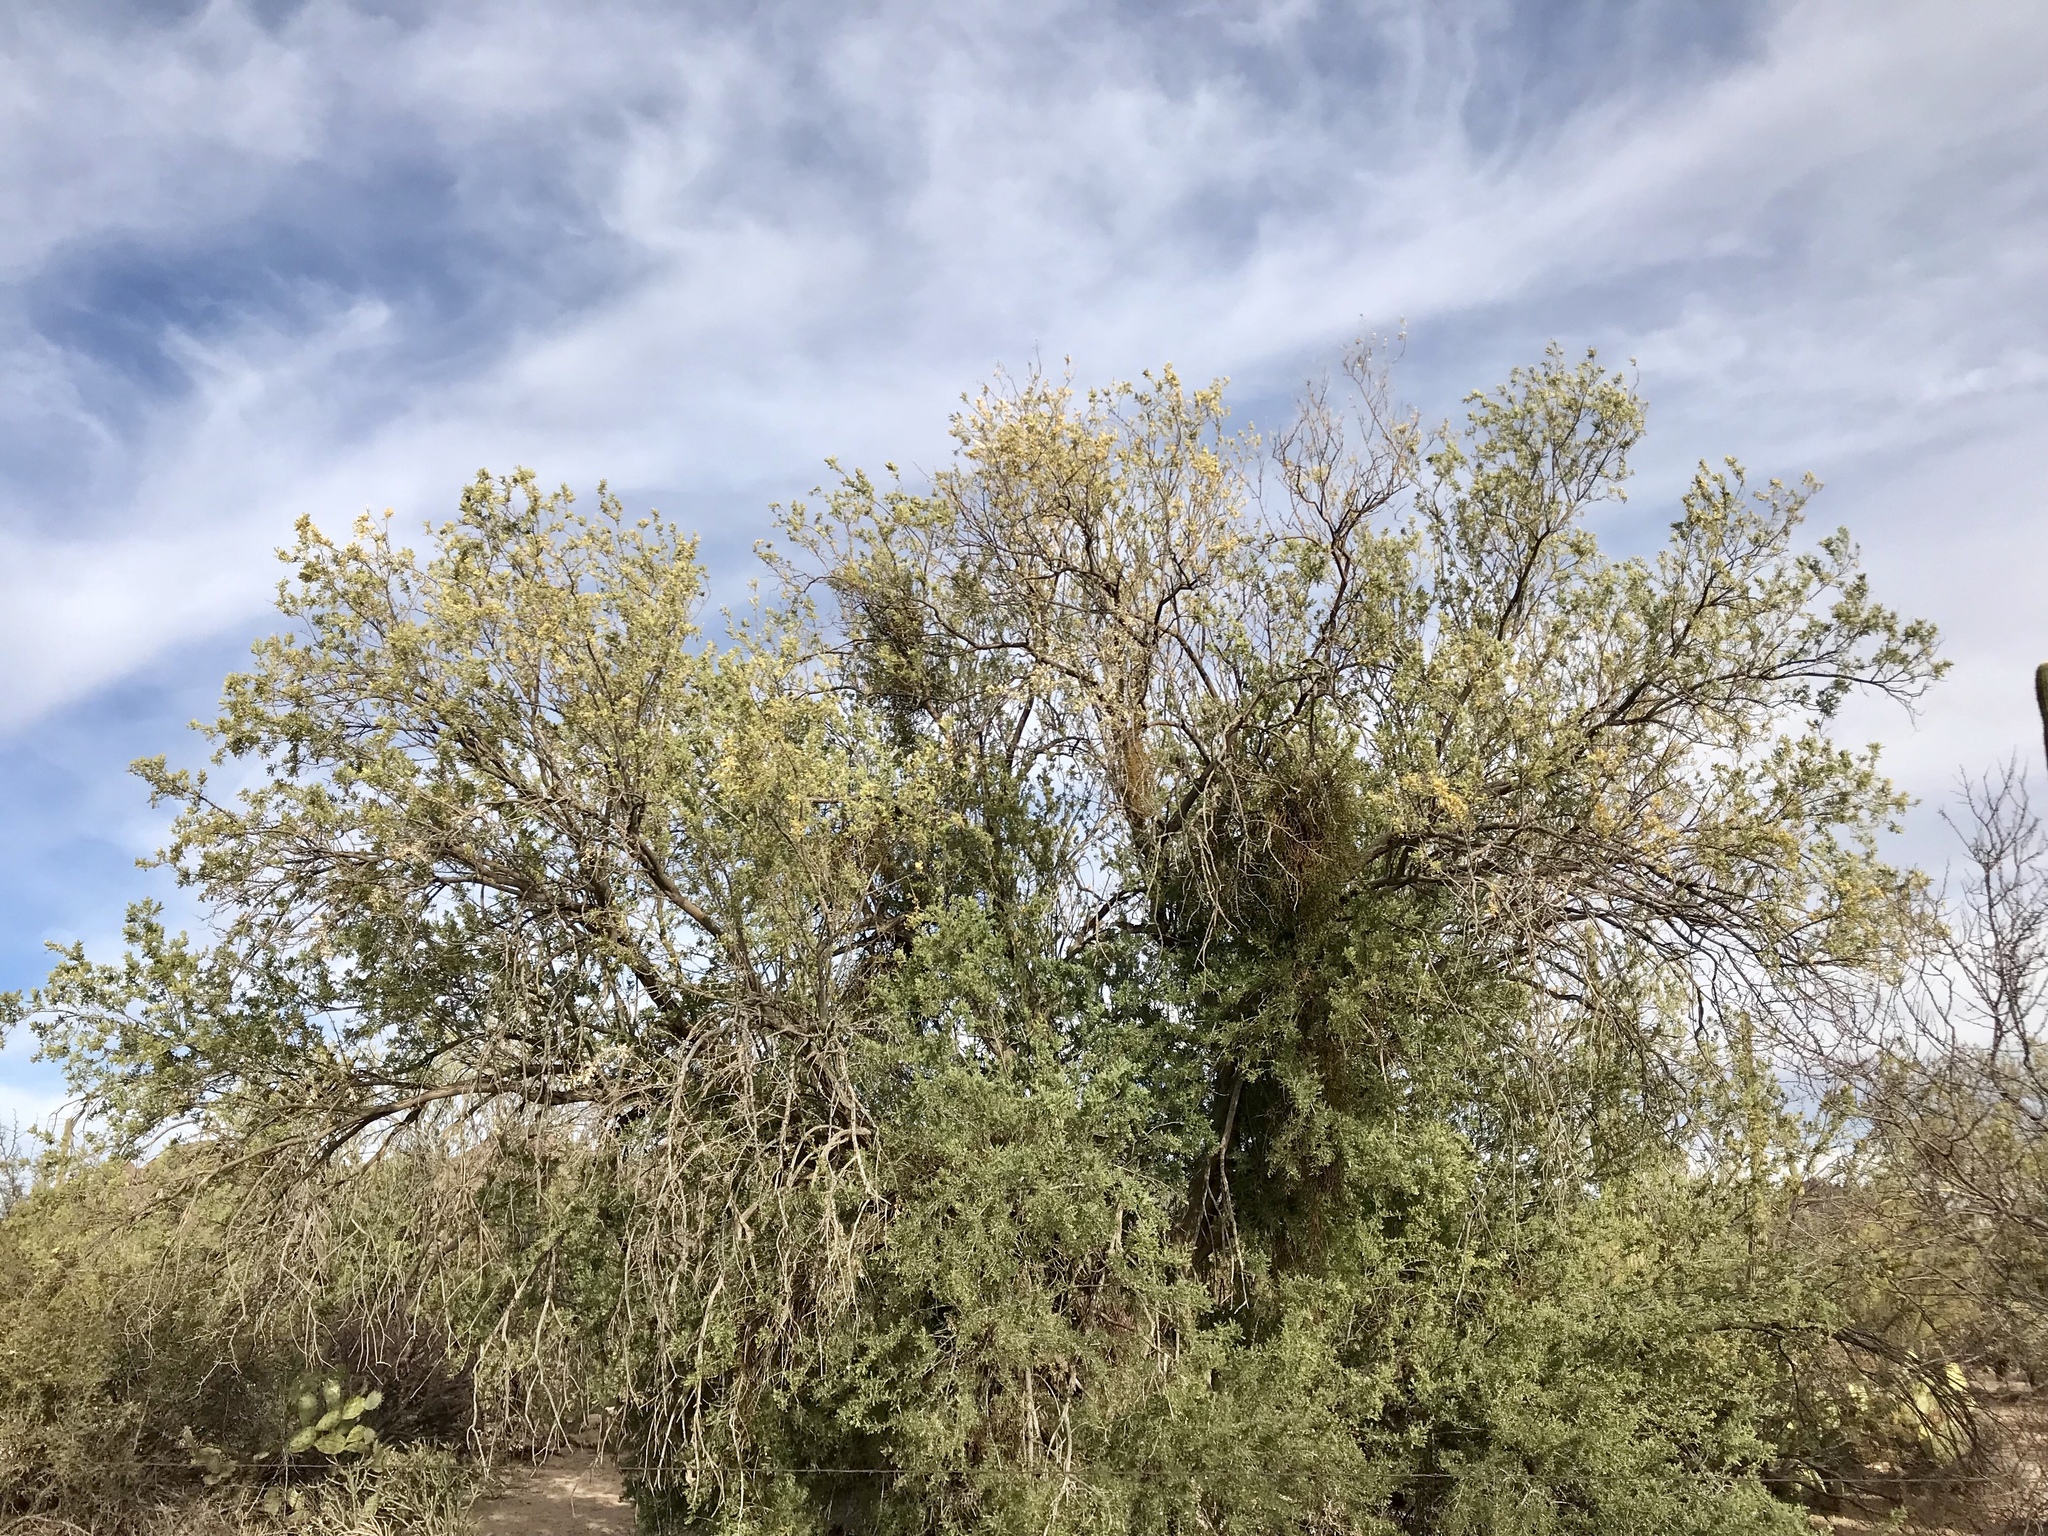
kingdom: Plantae
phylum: Tracheophyta
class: Magnoliopsida
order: Fabales
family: Fabaceae
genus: Olneya
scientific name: Olneya tesota
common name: Desert ironwood
